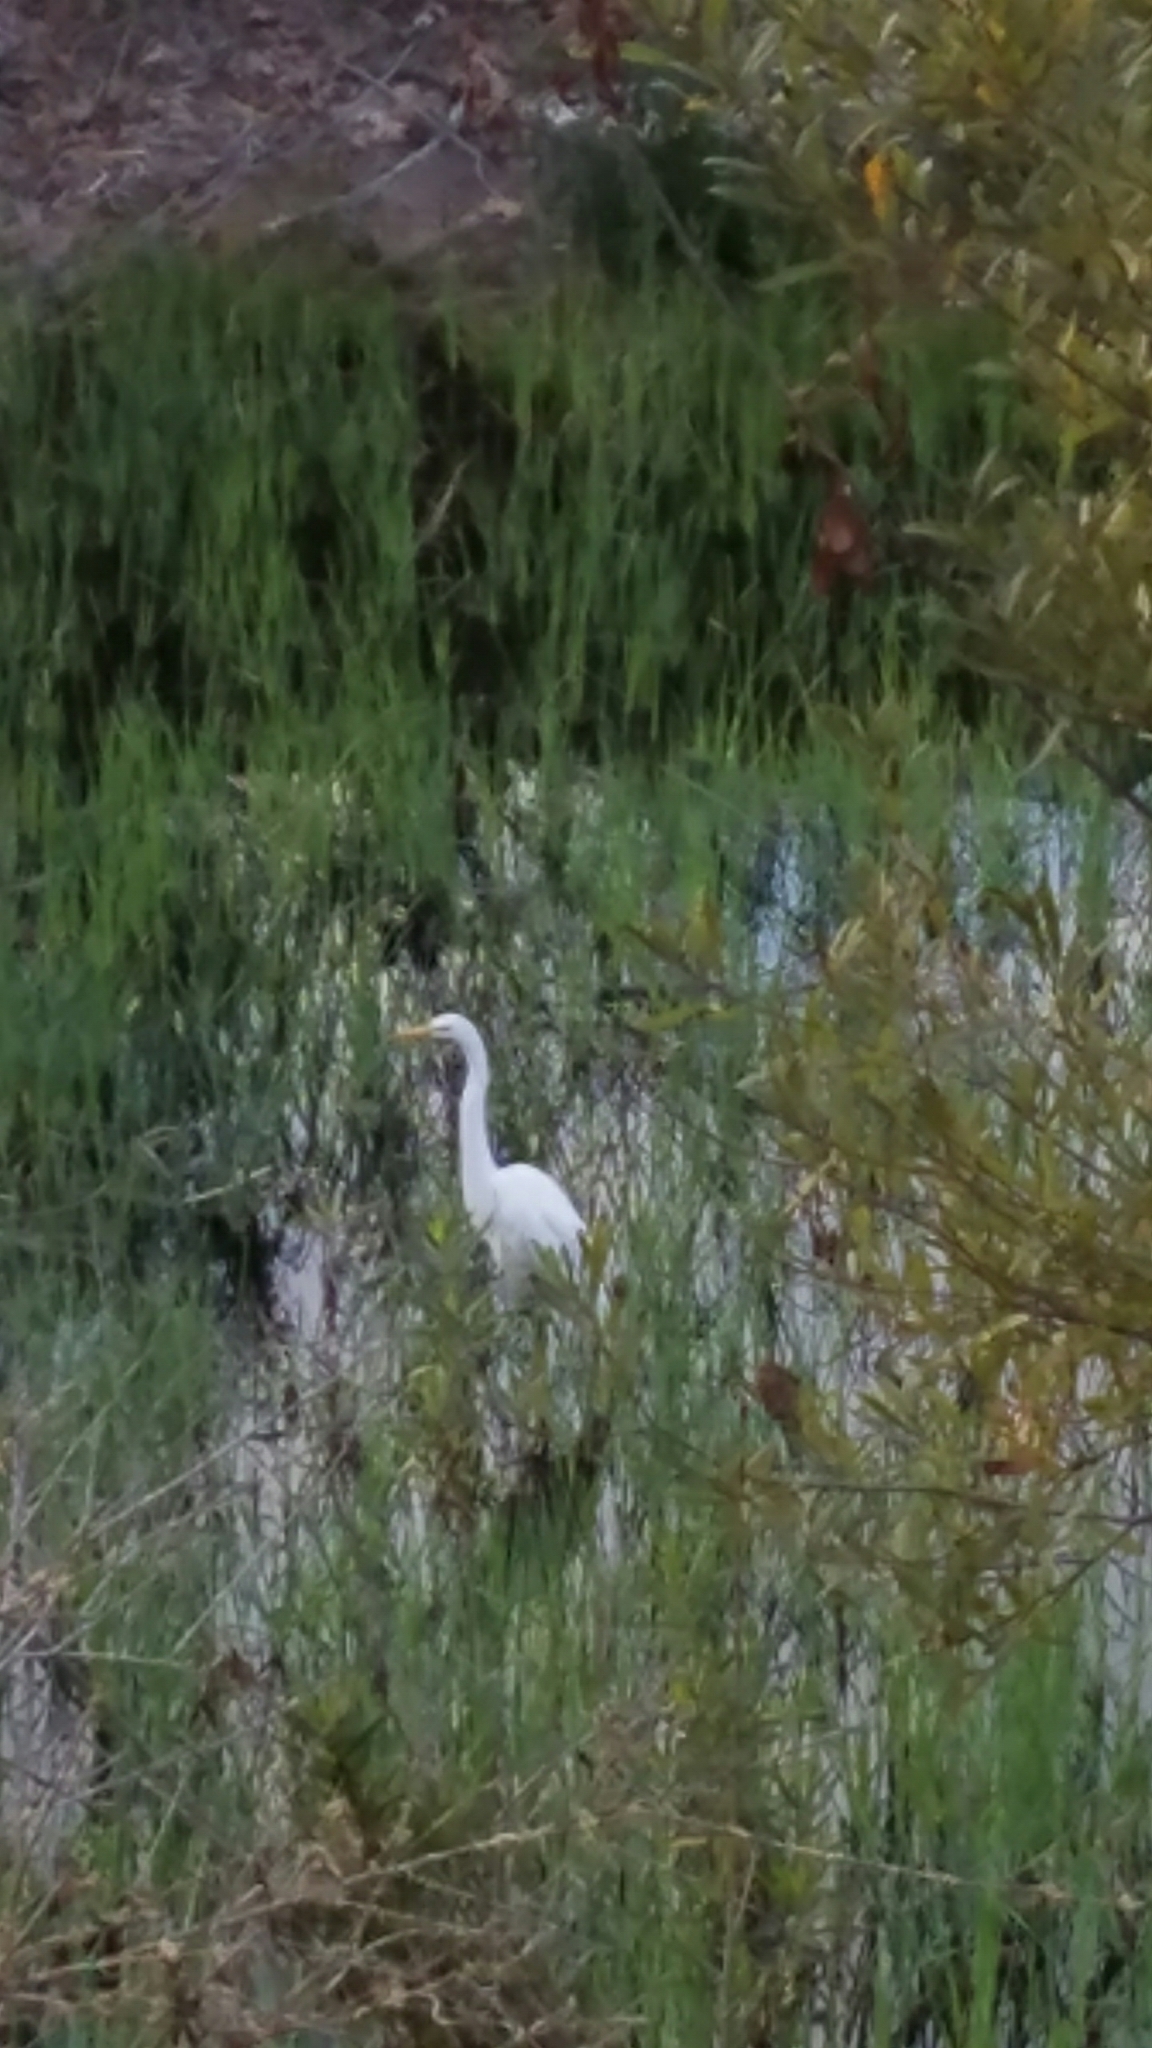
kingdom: Animalia
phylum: Chordata
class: Aves
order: Pelecaniformes
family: Ardeidae
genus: Ardea
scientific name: Ardea alba
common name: Great egret
